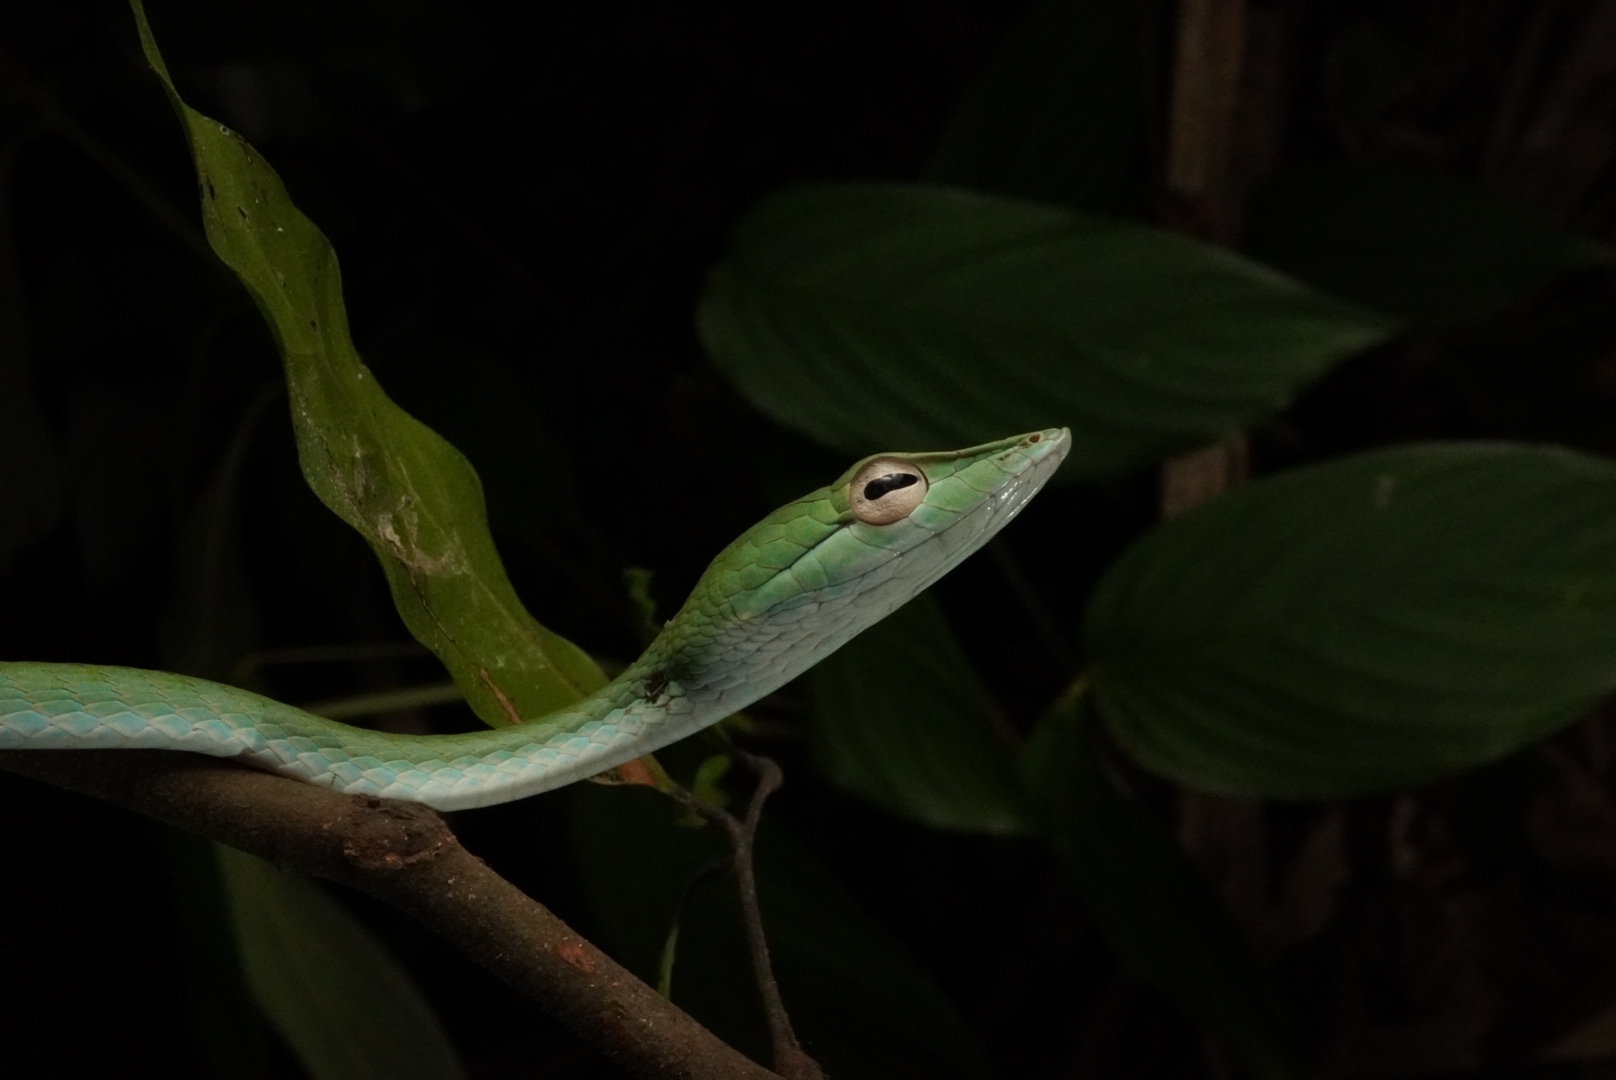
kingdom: Animalia
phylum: Chordata
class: Squamata
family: Colubridae
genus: Ahaetulla
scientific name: Ahaetulla prasina
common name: Oriental whip snake
